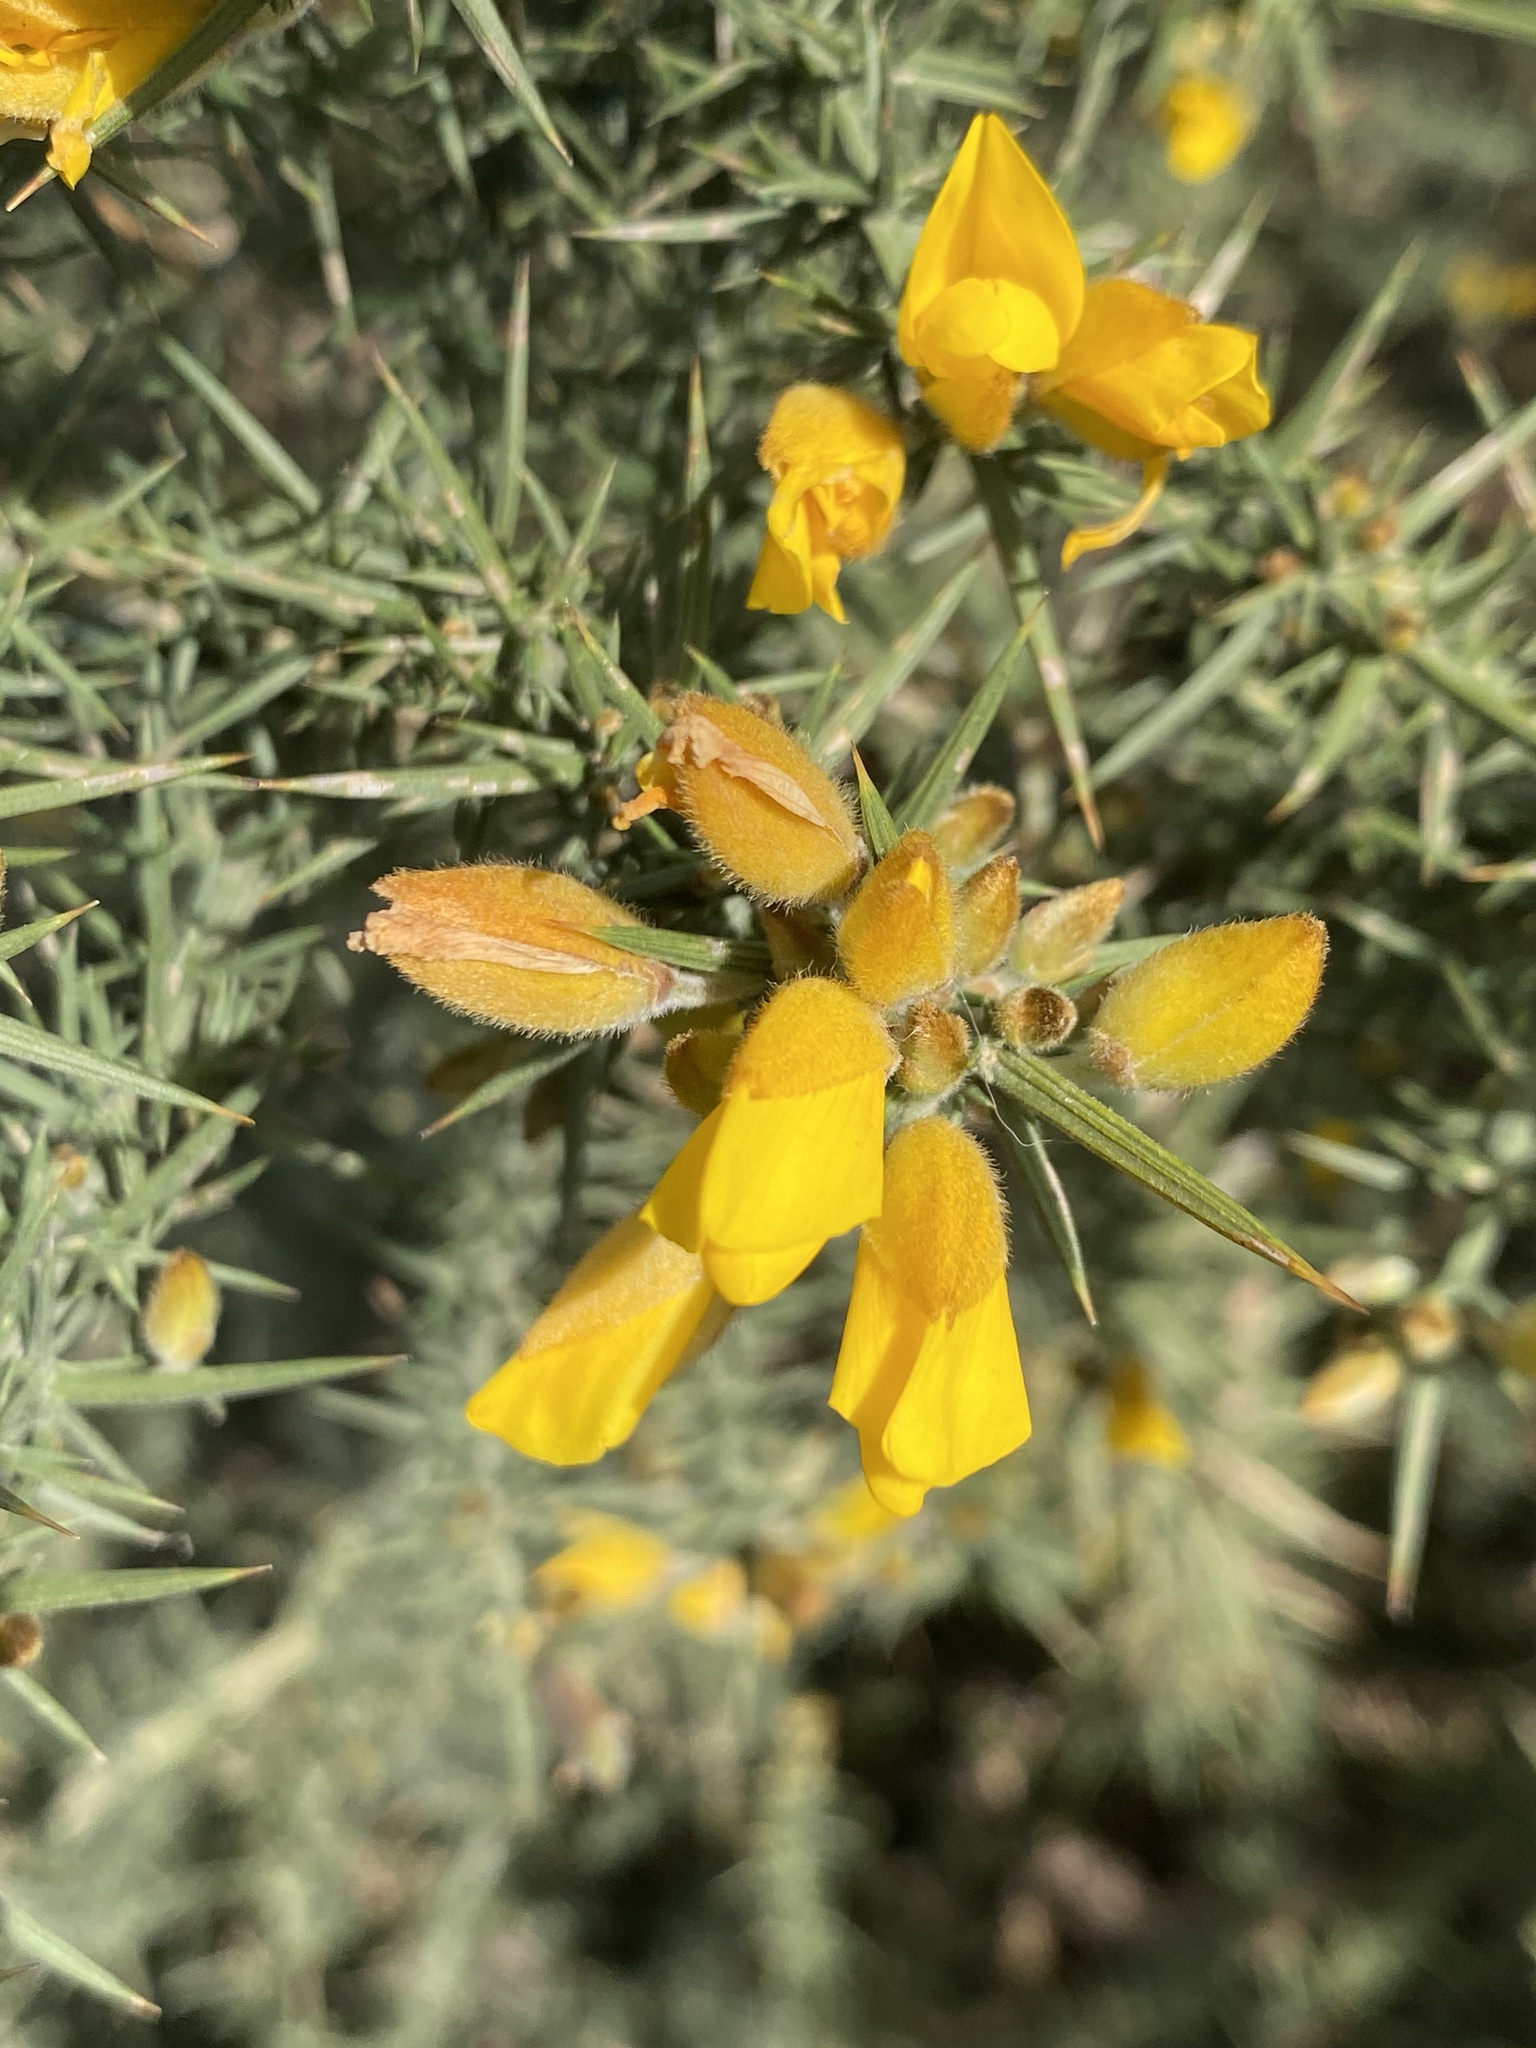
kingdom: Plantae
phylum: Tracheophyta
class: Magnoliopsida
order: Fabales
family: Fabaceae
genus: Ulex
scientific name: Ulex europaeus
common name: Common gorse
